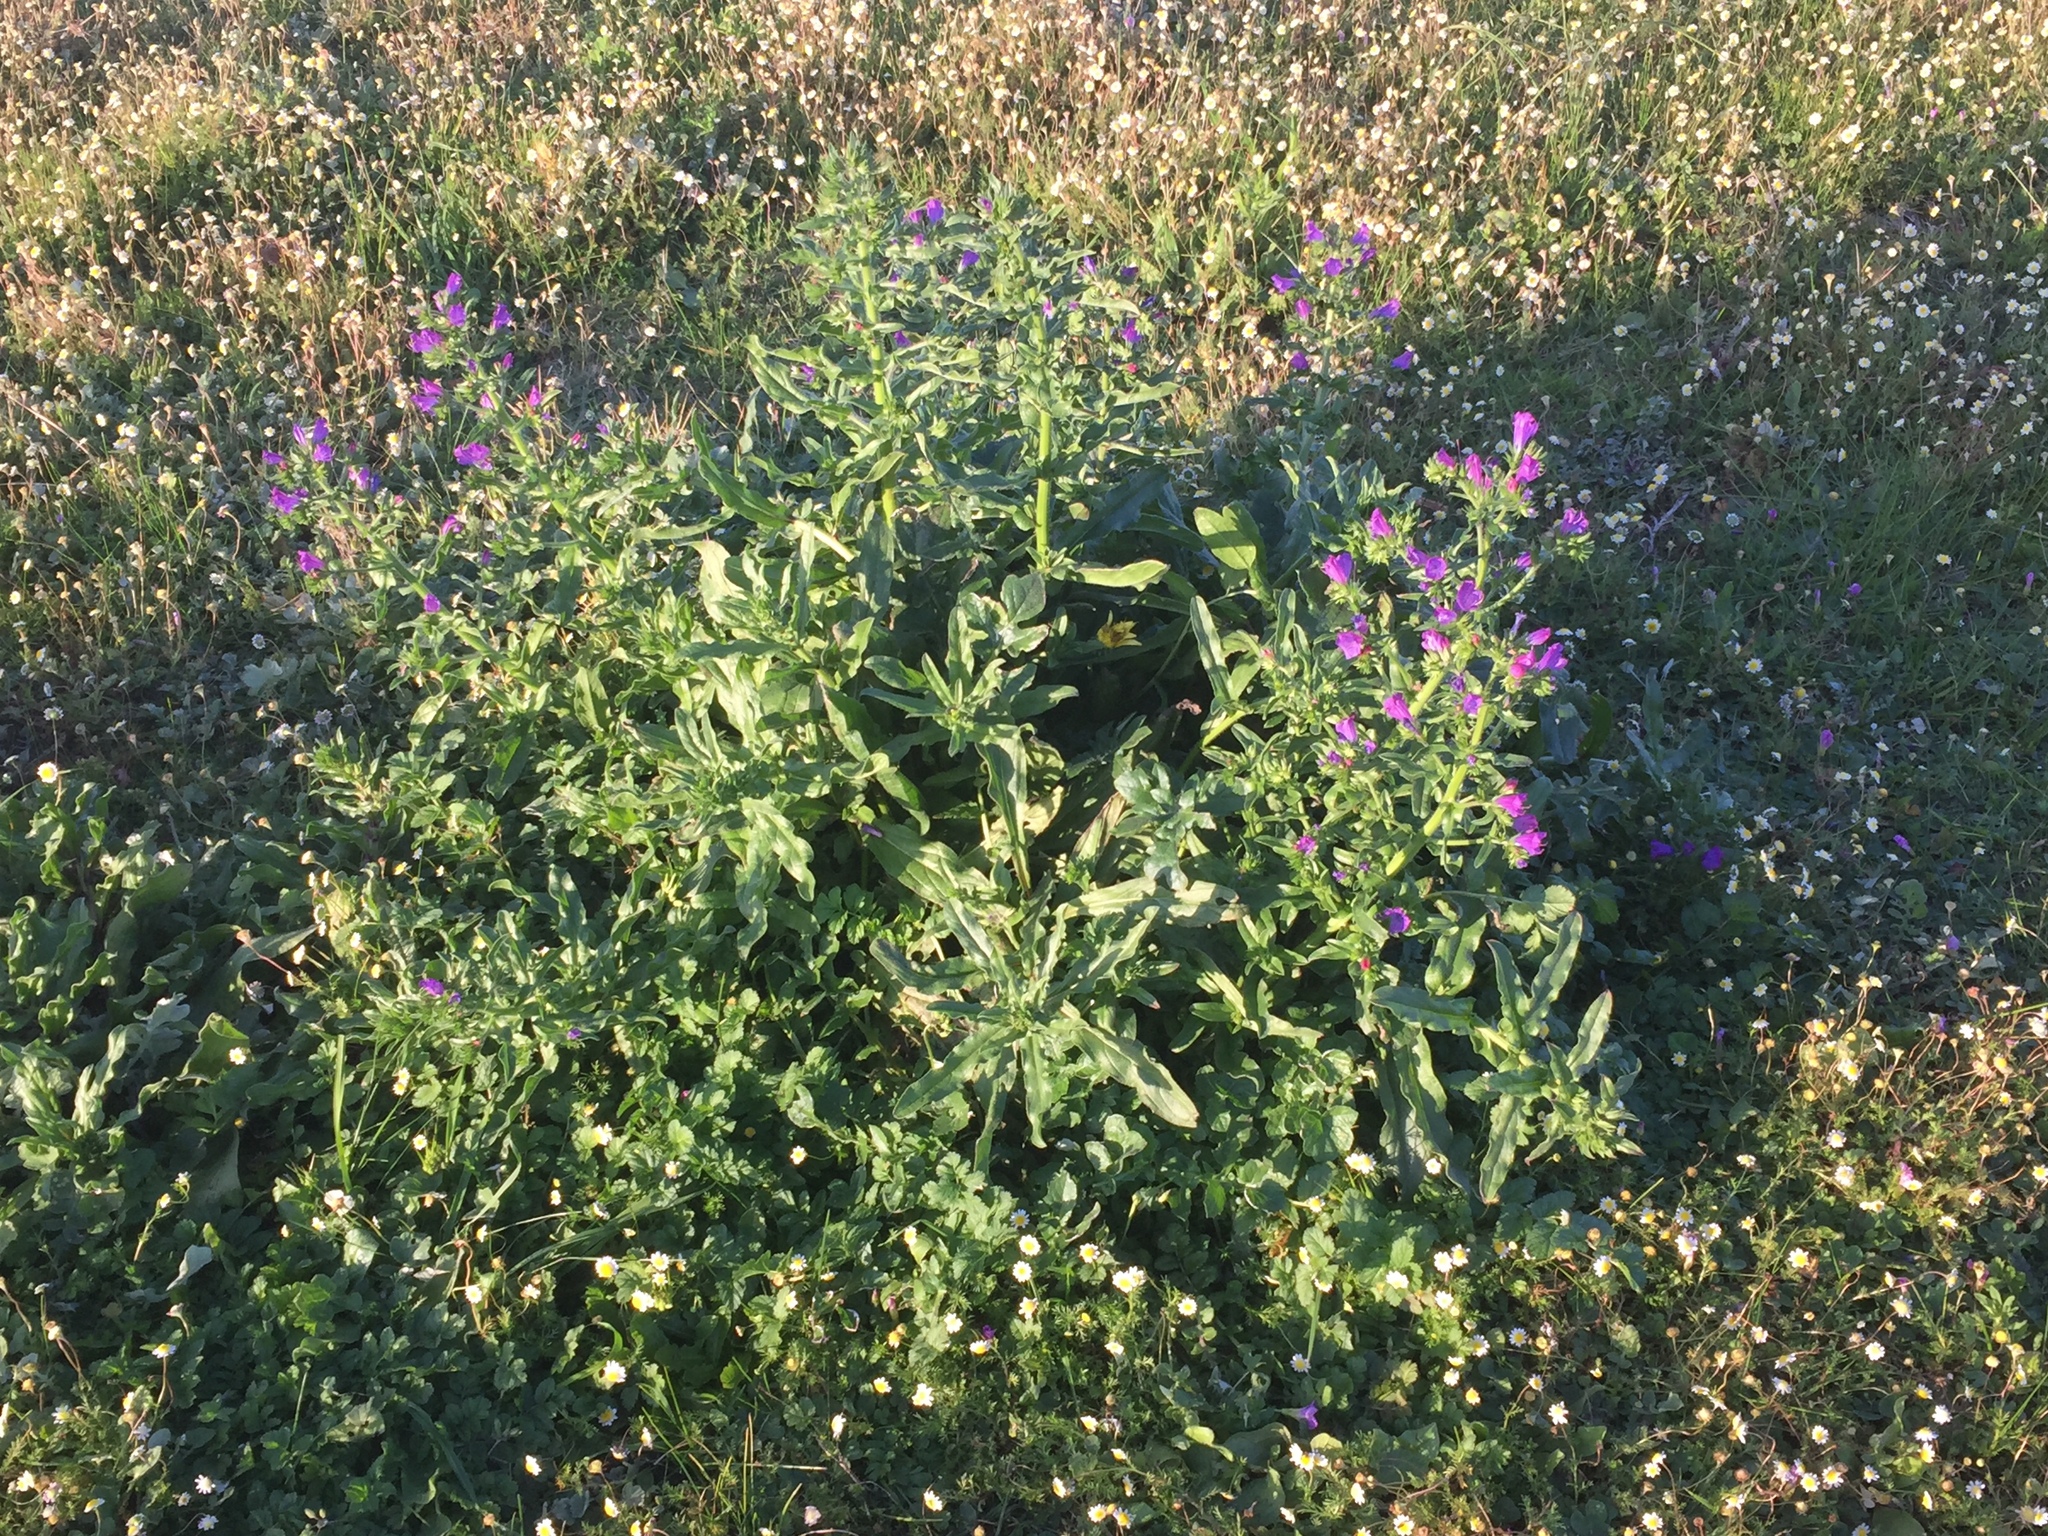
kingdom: Plantae
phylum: Tracheophyta
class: Magnoliopsida
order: Boraginales
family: Boraginaceae
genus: Echium
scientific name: Echium plantagineum
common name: Purple viper's-bugloss
